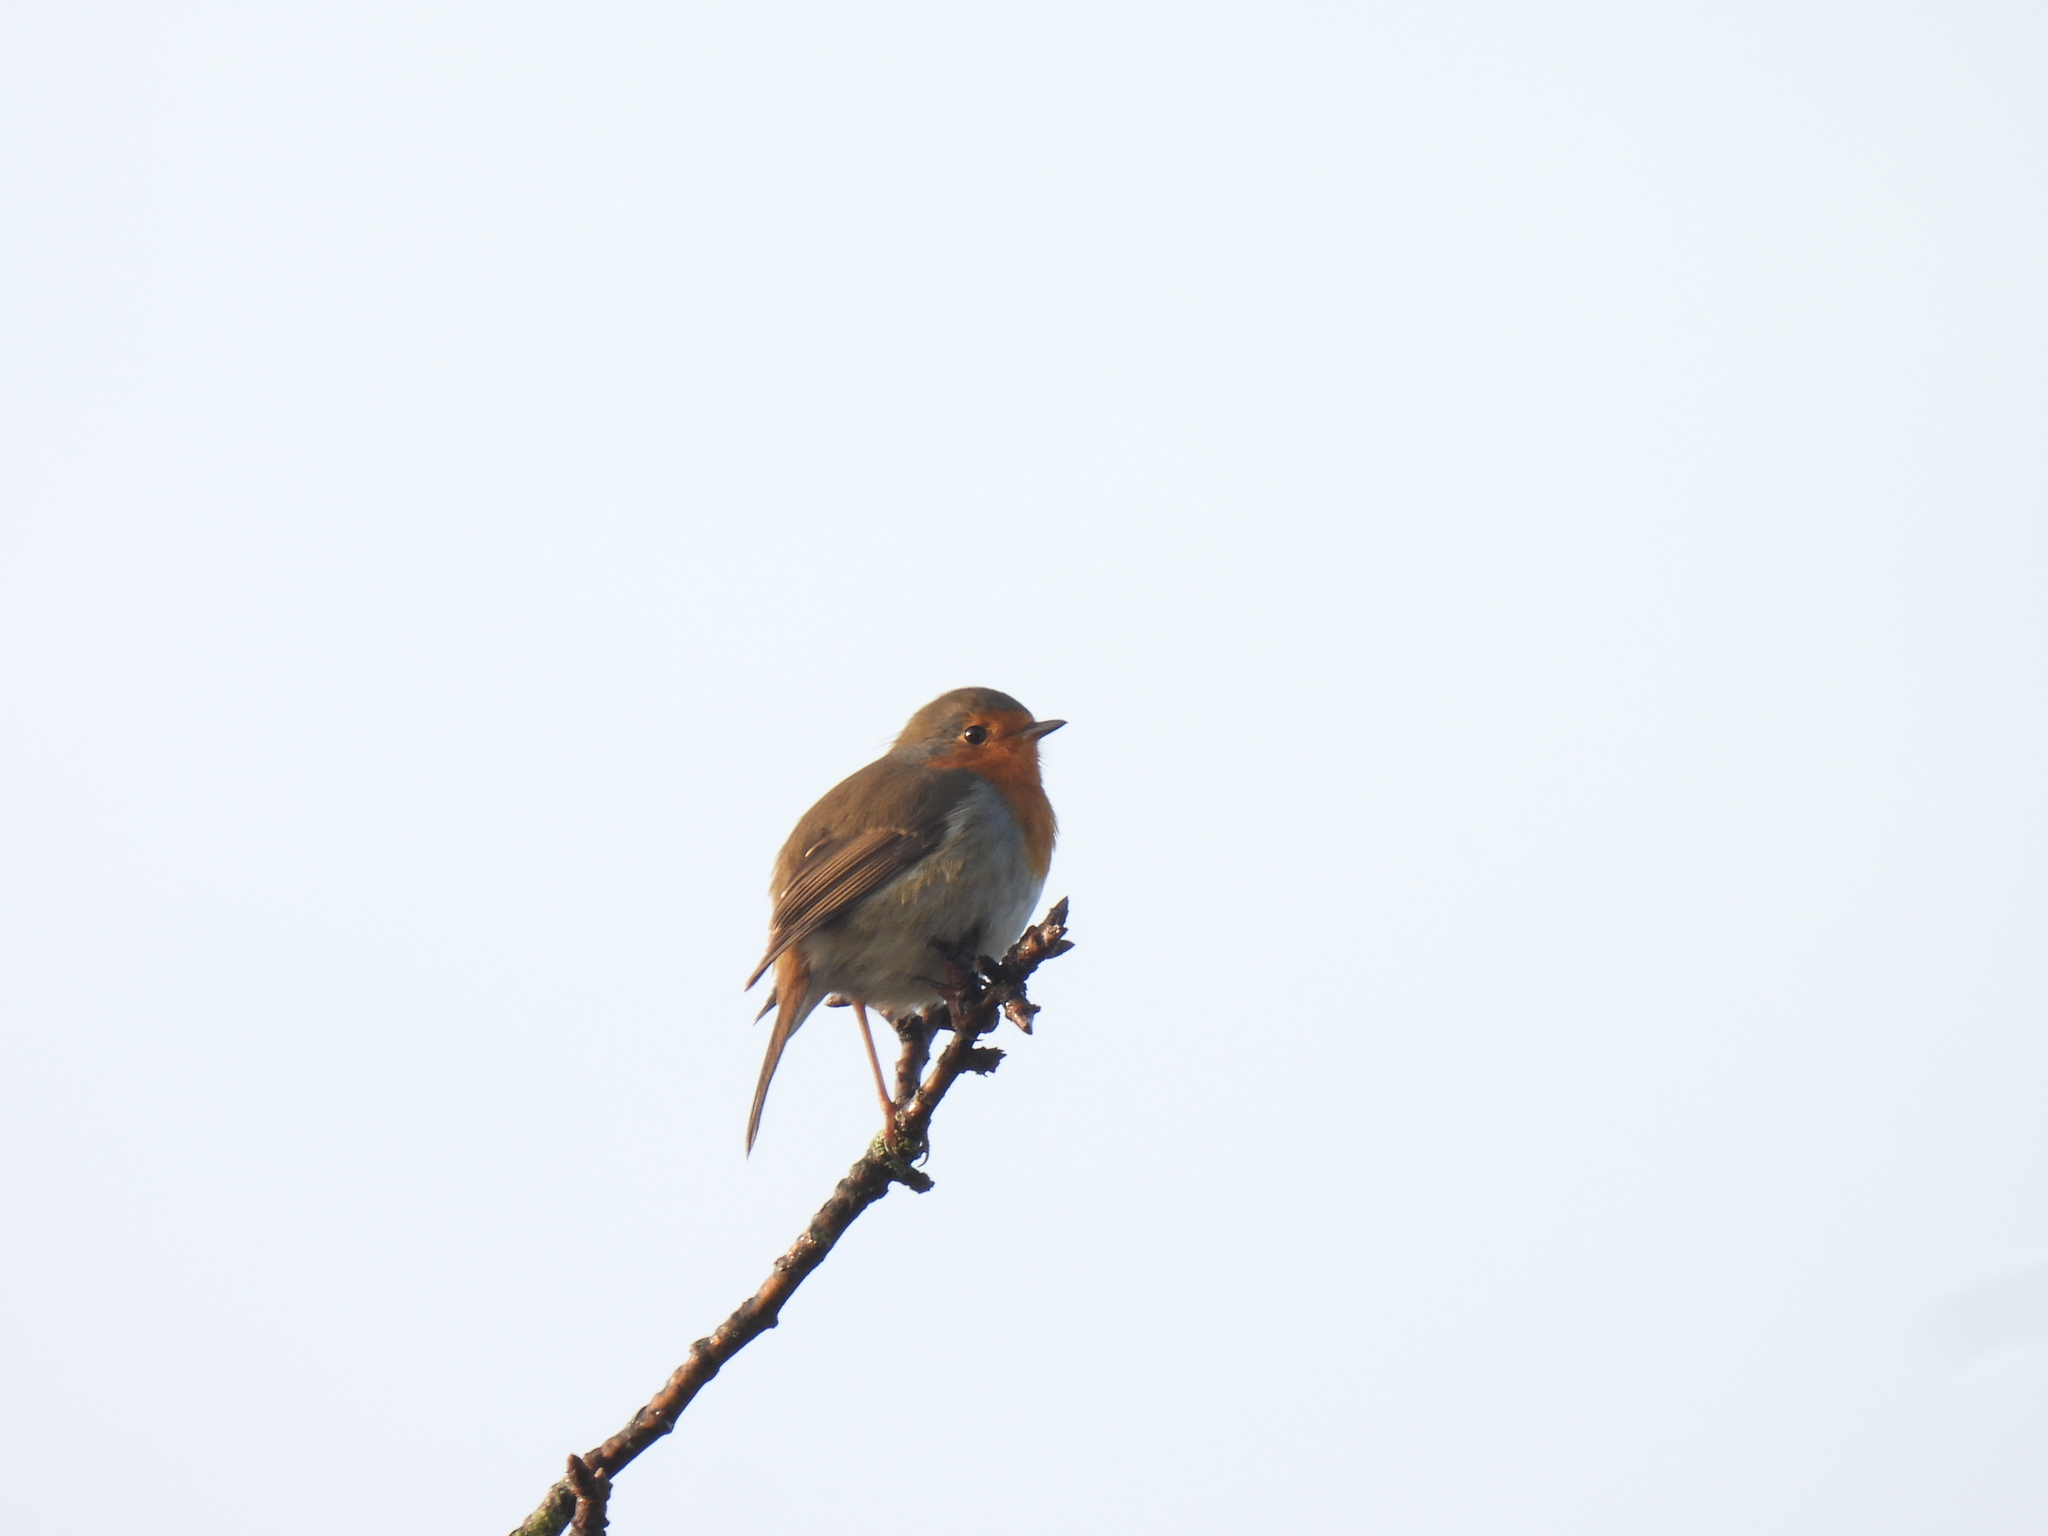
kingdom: Animalia
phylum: Chordata
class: Aves
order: Passeriformes
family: Muscicapidae
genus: Erithacus
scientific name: Erithacus rubecula
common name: European robin
